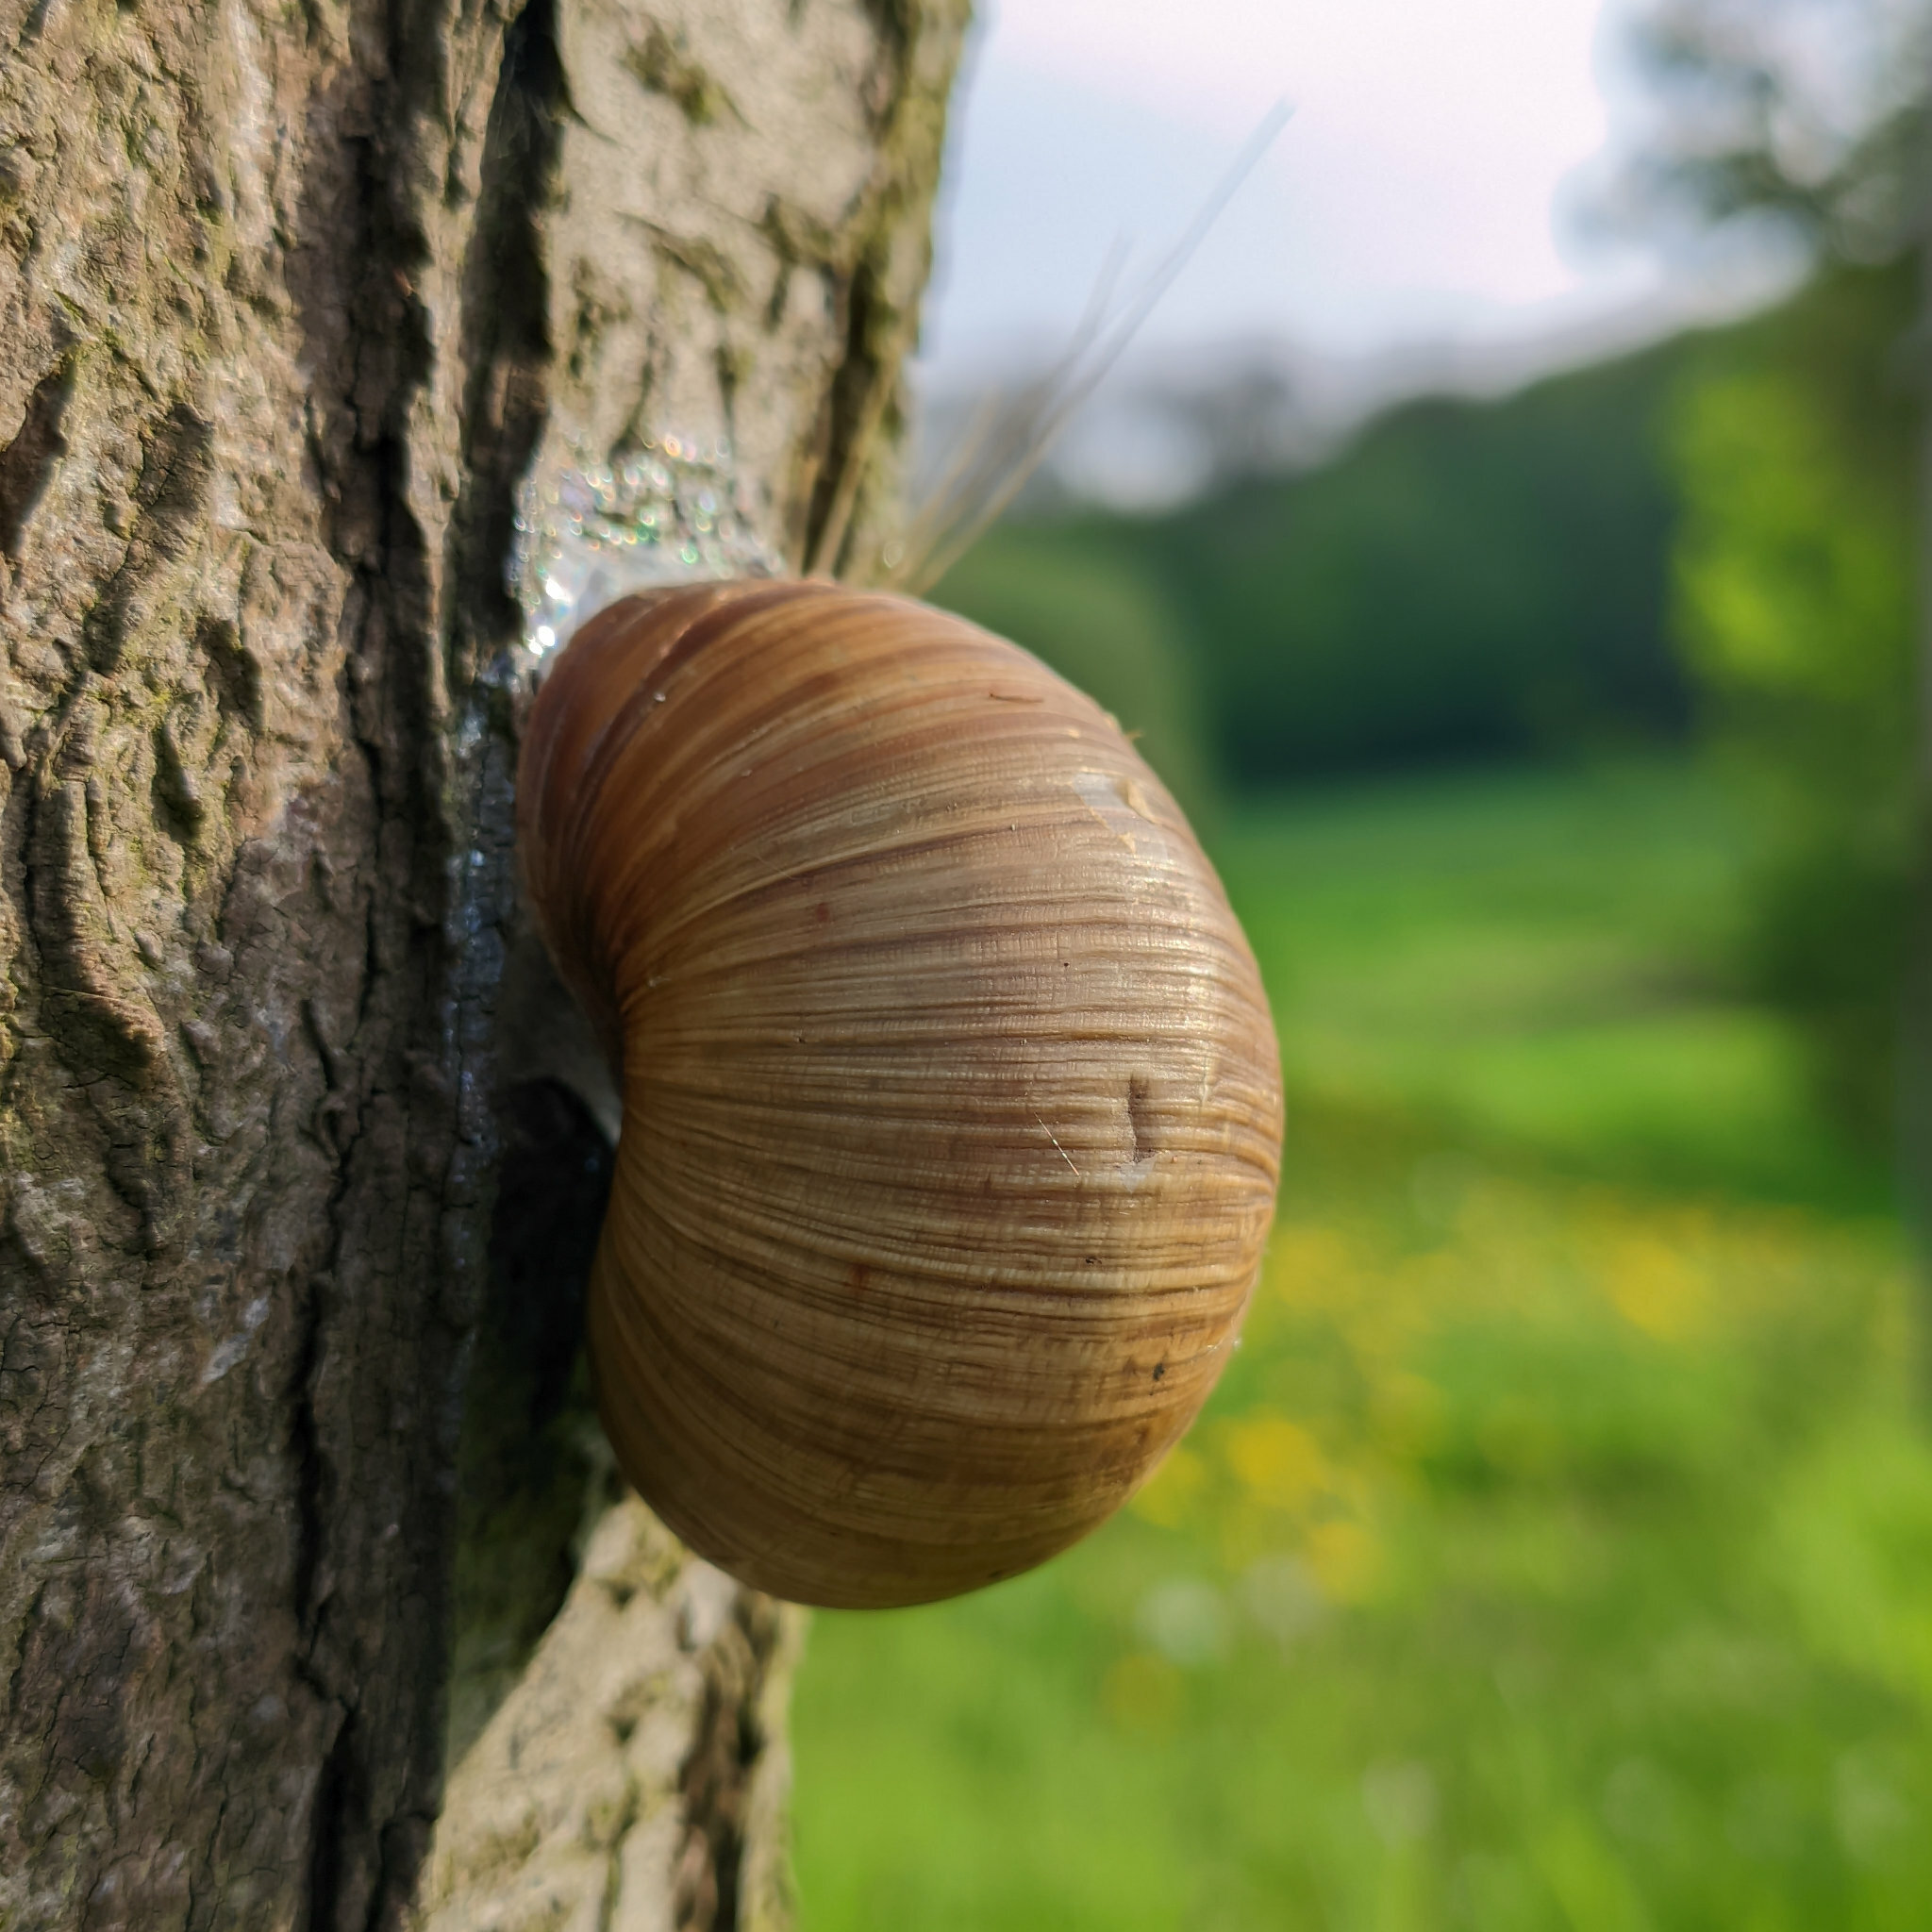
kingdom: Animalia
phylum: Mollusca
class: Gastropoda
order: Stylommatophora
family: Helicidae
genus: Helix
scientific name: Helix pomatia
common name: Roman snail
